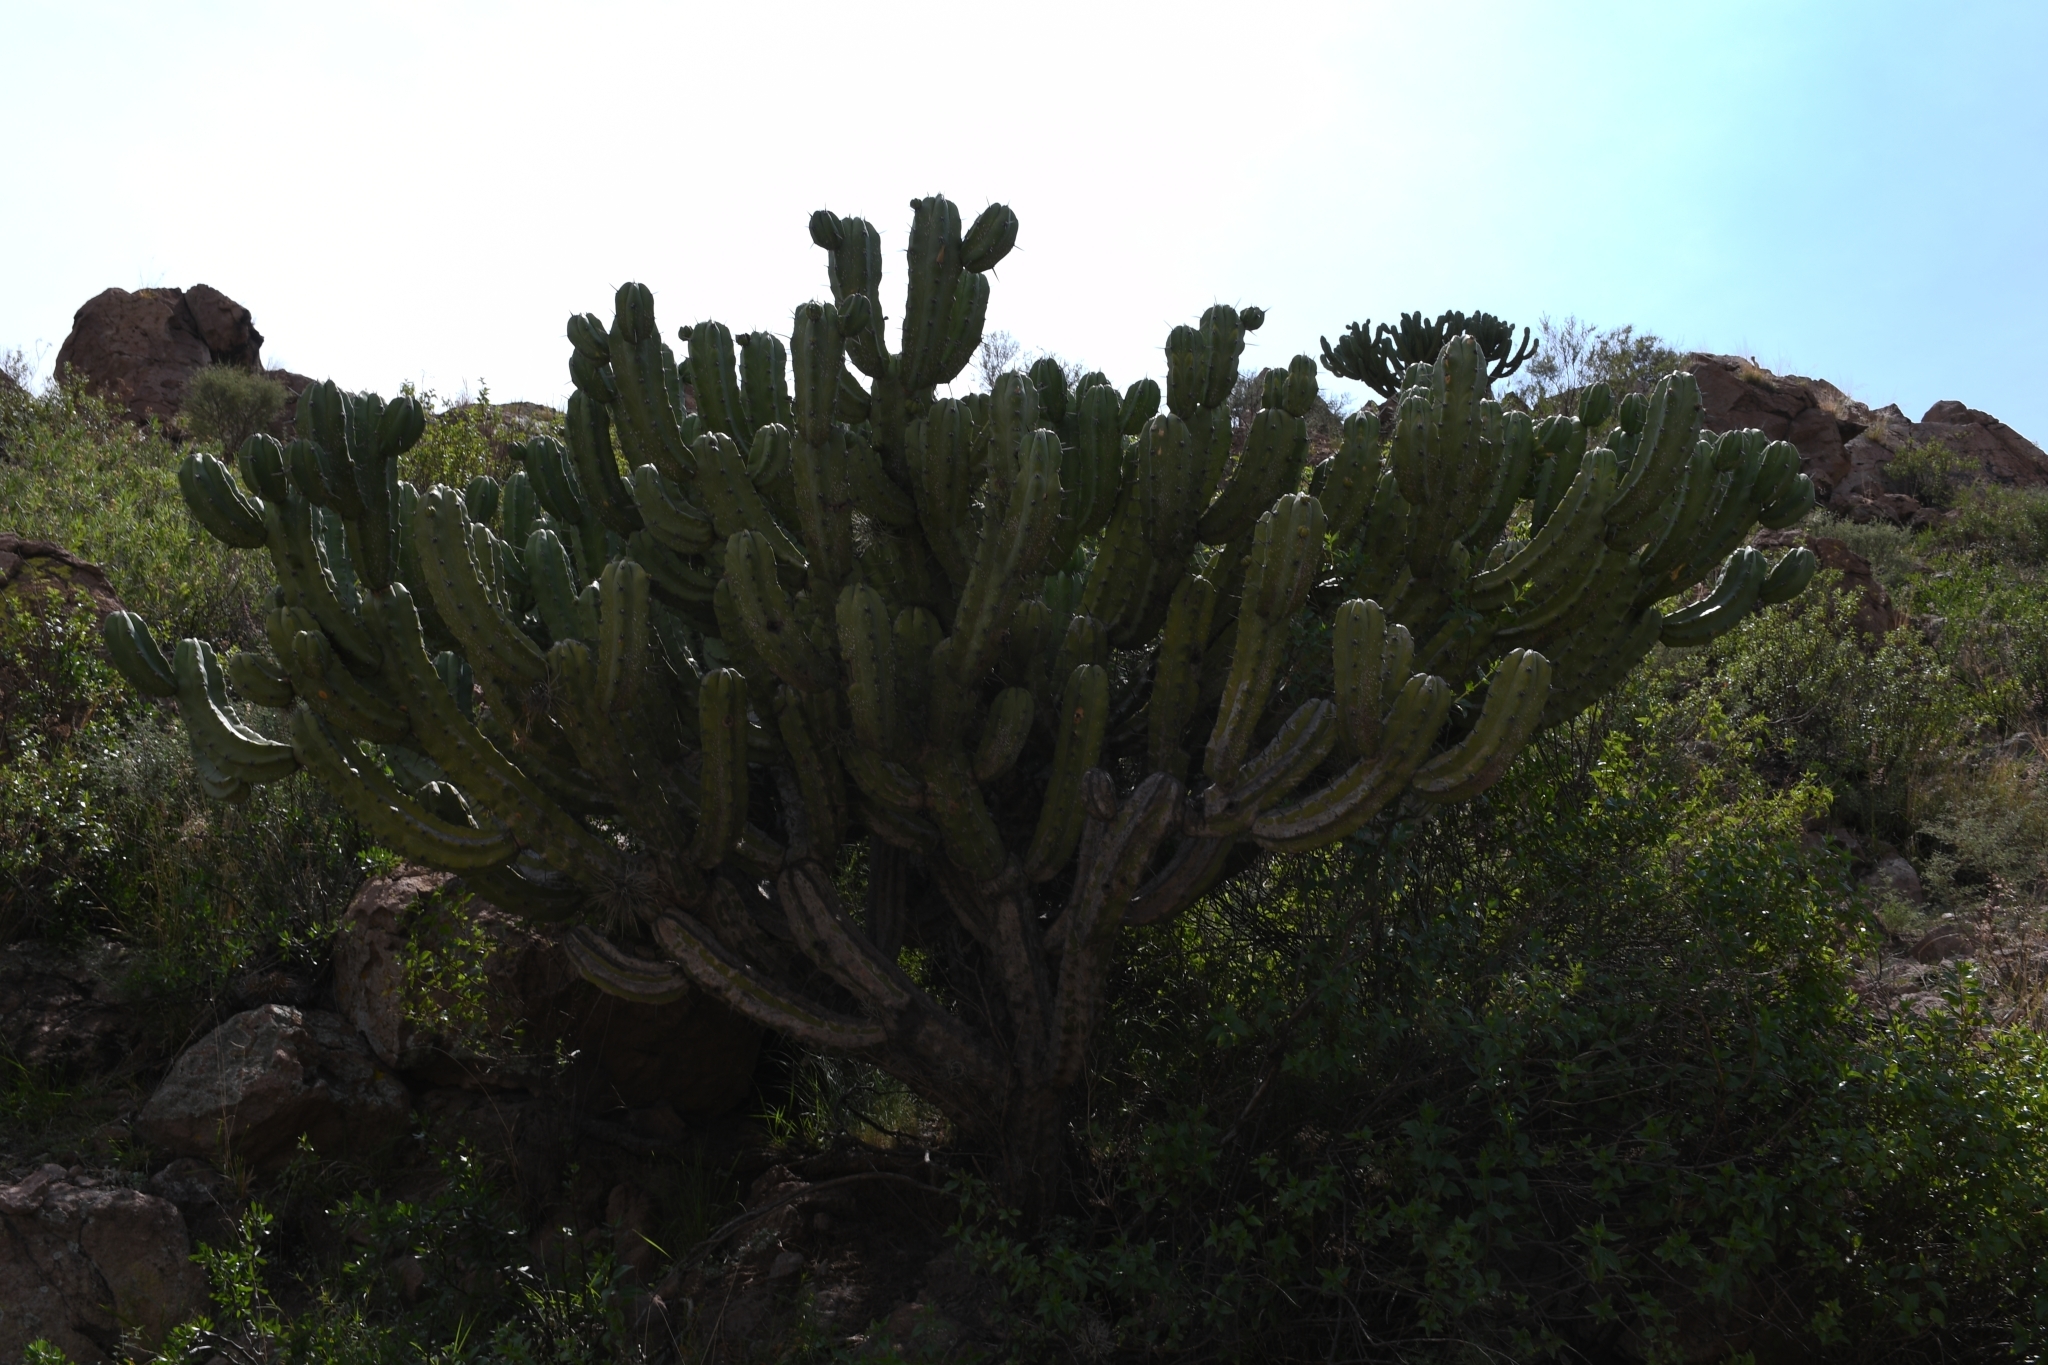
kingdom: Plantae
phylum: Tracheophyta
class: Magnoliopsida
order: Caryophyllales
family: Cactaceae
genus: Myrtillocactus
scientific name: Myrtillocactus geometrizans
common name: Bilberry cactus
